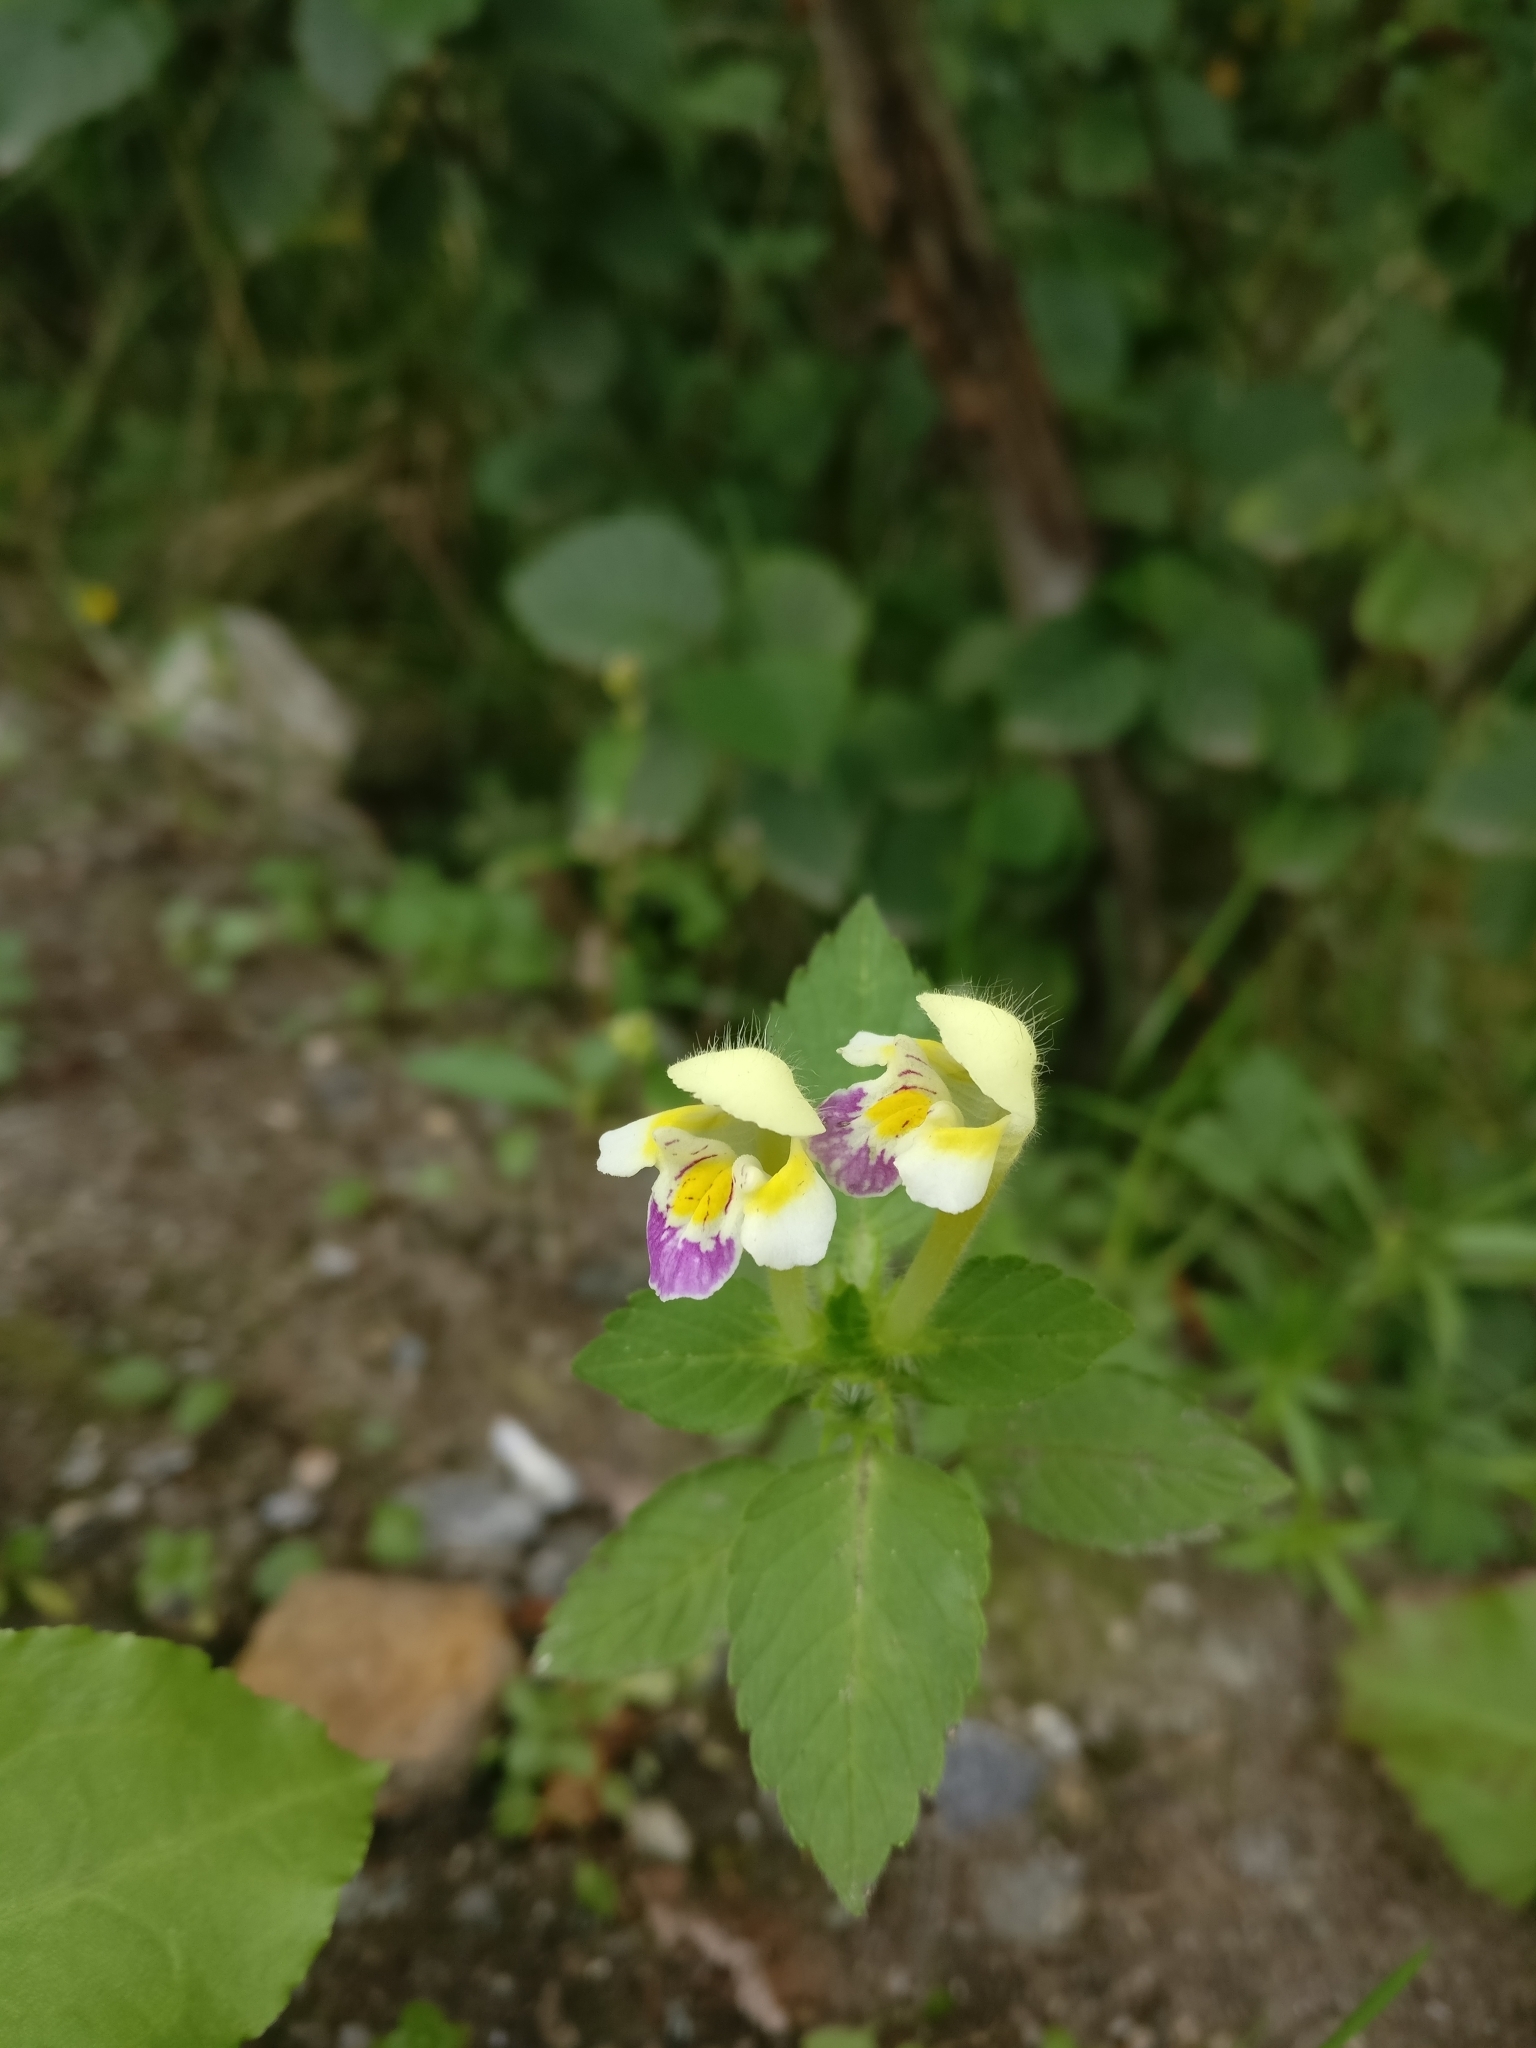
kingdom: Plantae
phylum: Tracheophyta
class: Magnoliopsida
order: Lamiales
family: Lamiaceae
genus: Galeopsis
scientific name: Galeopsis speciosa
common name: Large-flowered hemp-nettle
